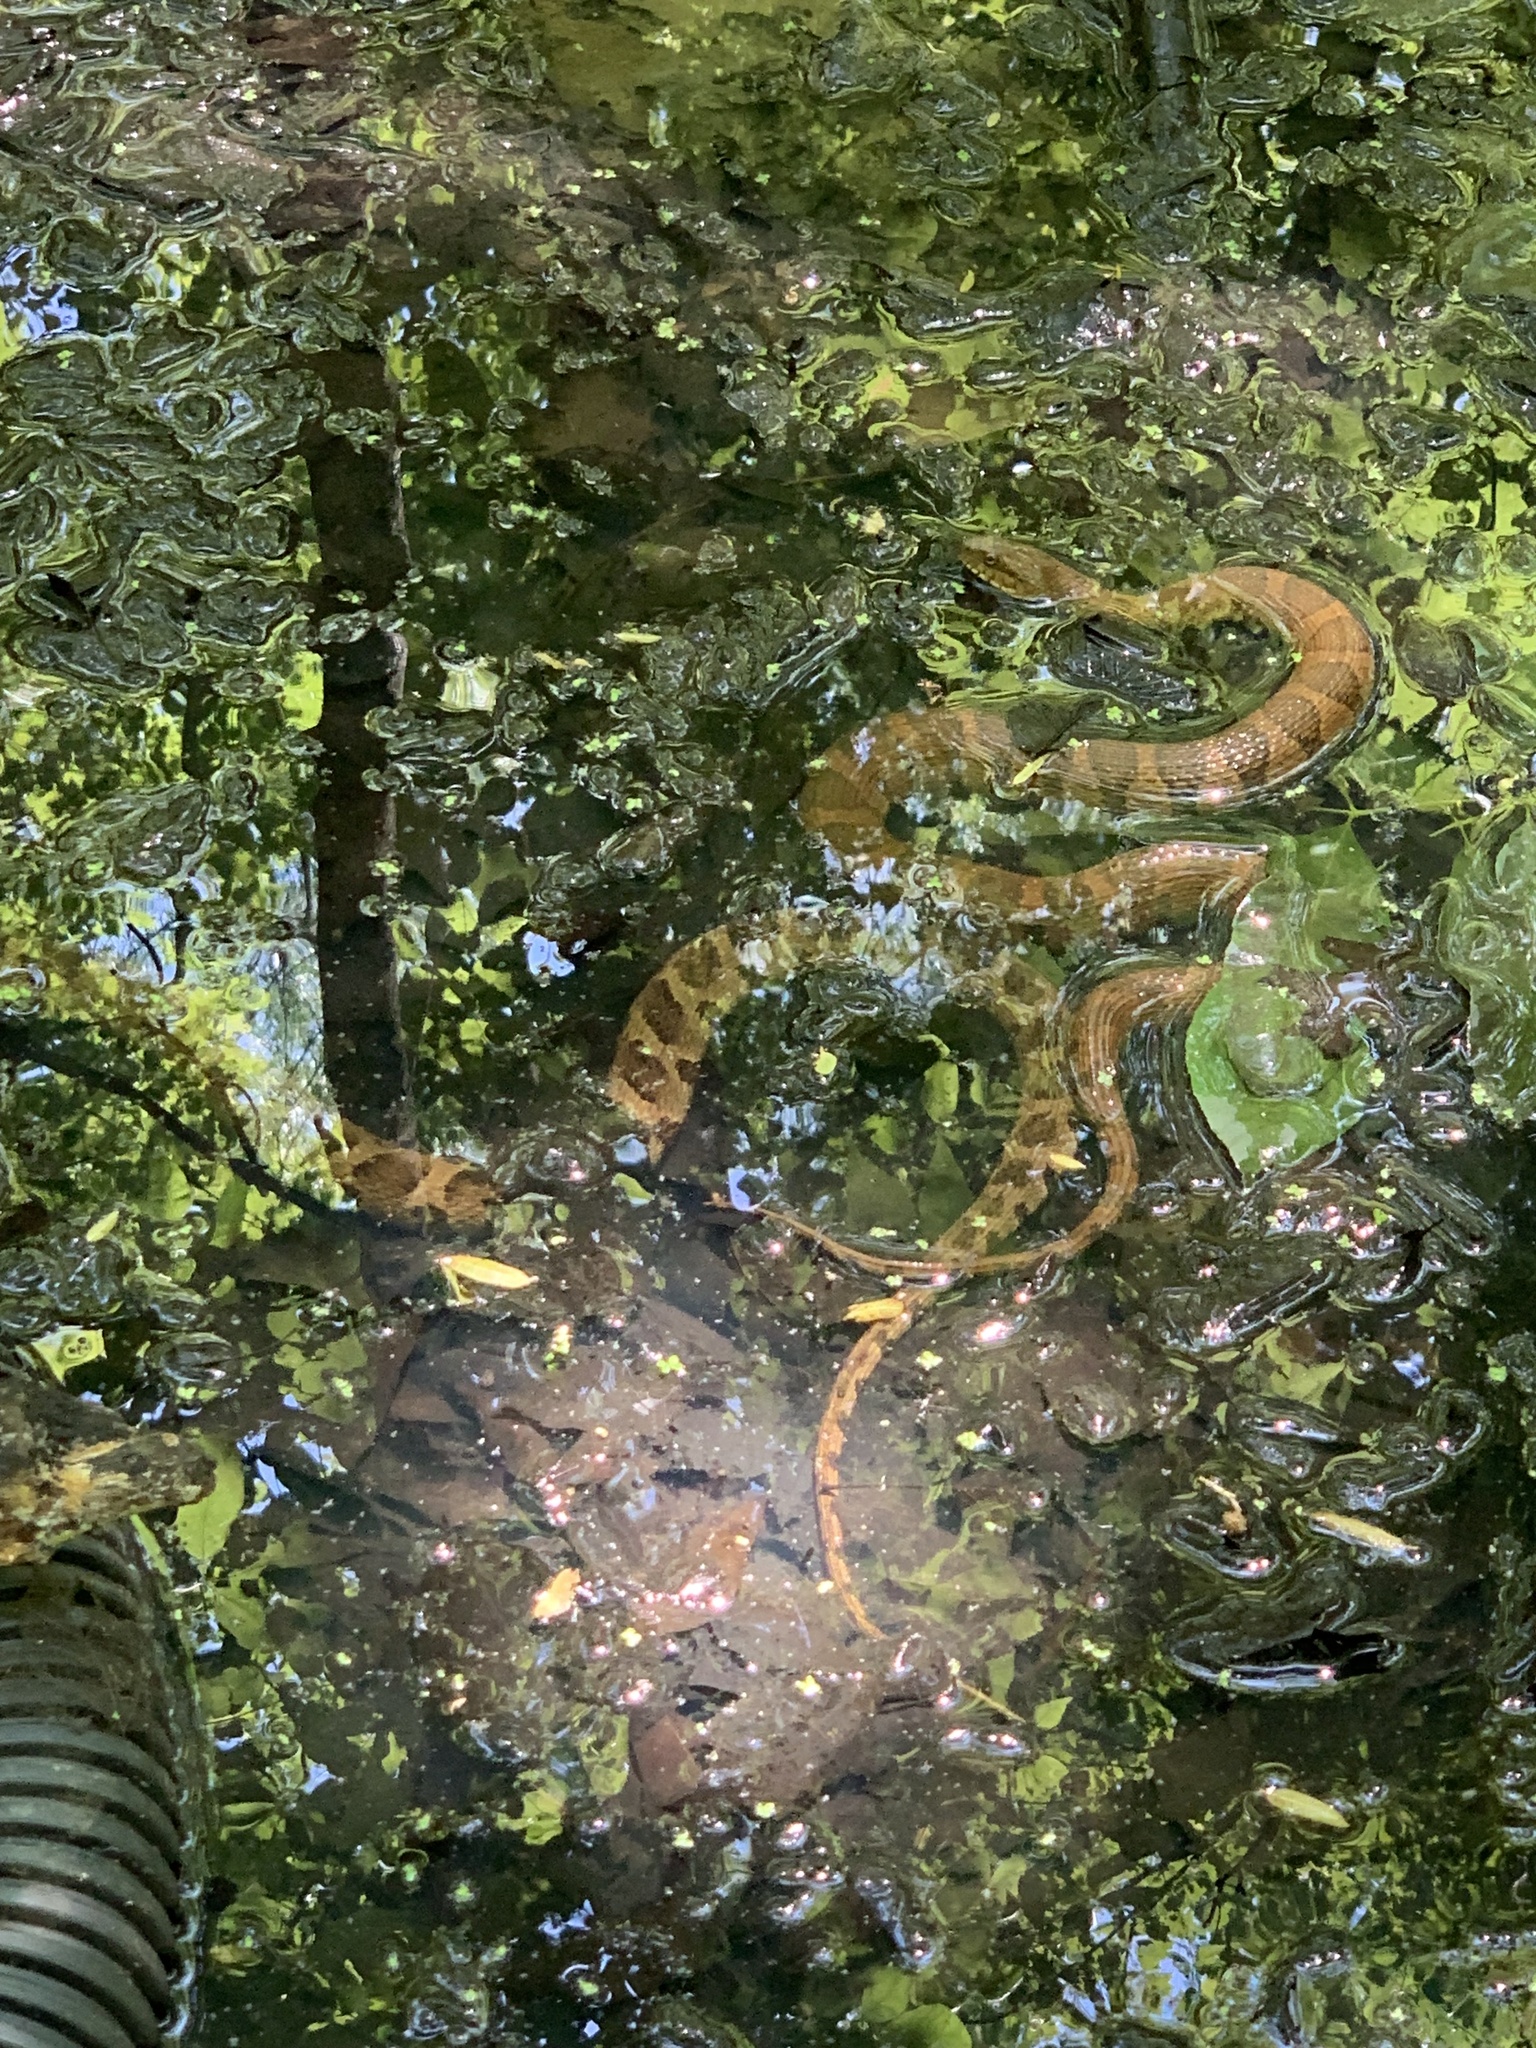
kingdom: Animalia
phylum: Chordata
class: Squamata
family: Colubridae
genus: Nerodia
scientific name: Nerodia sipedon
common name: Northern water snake
